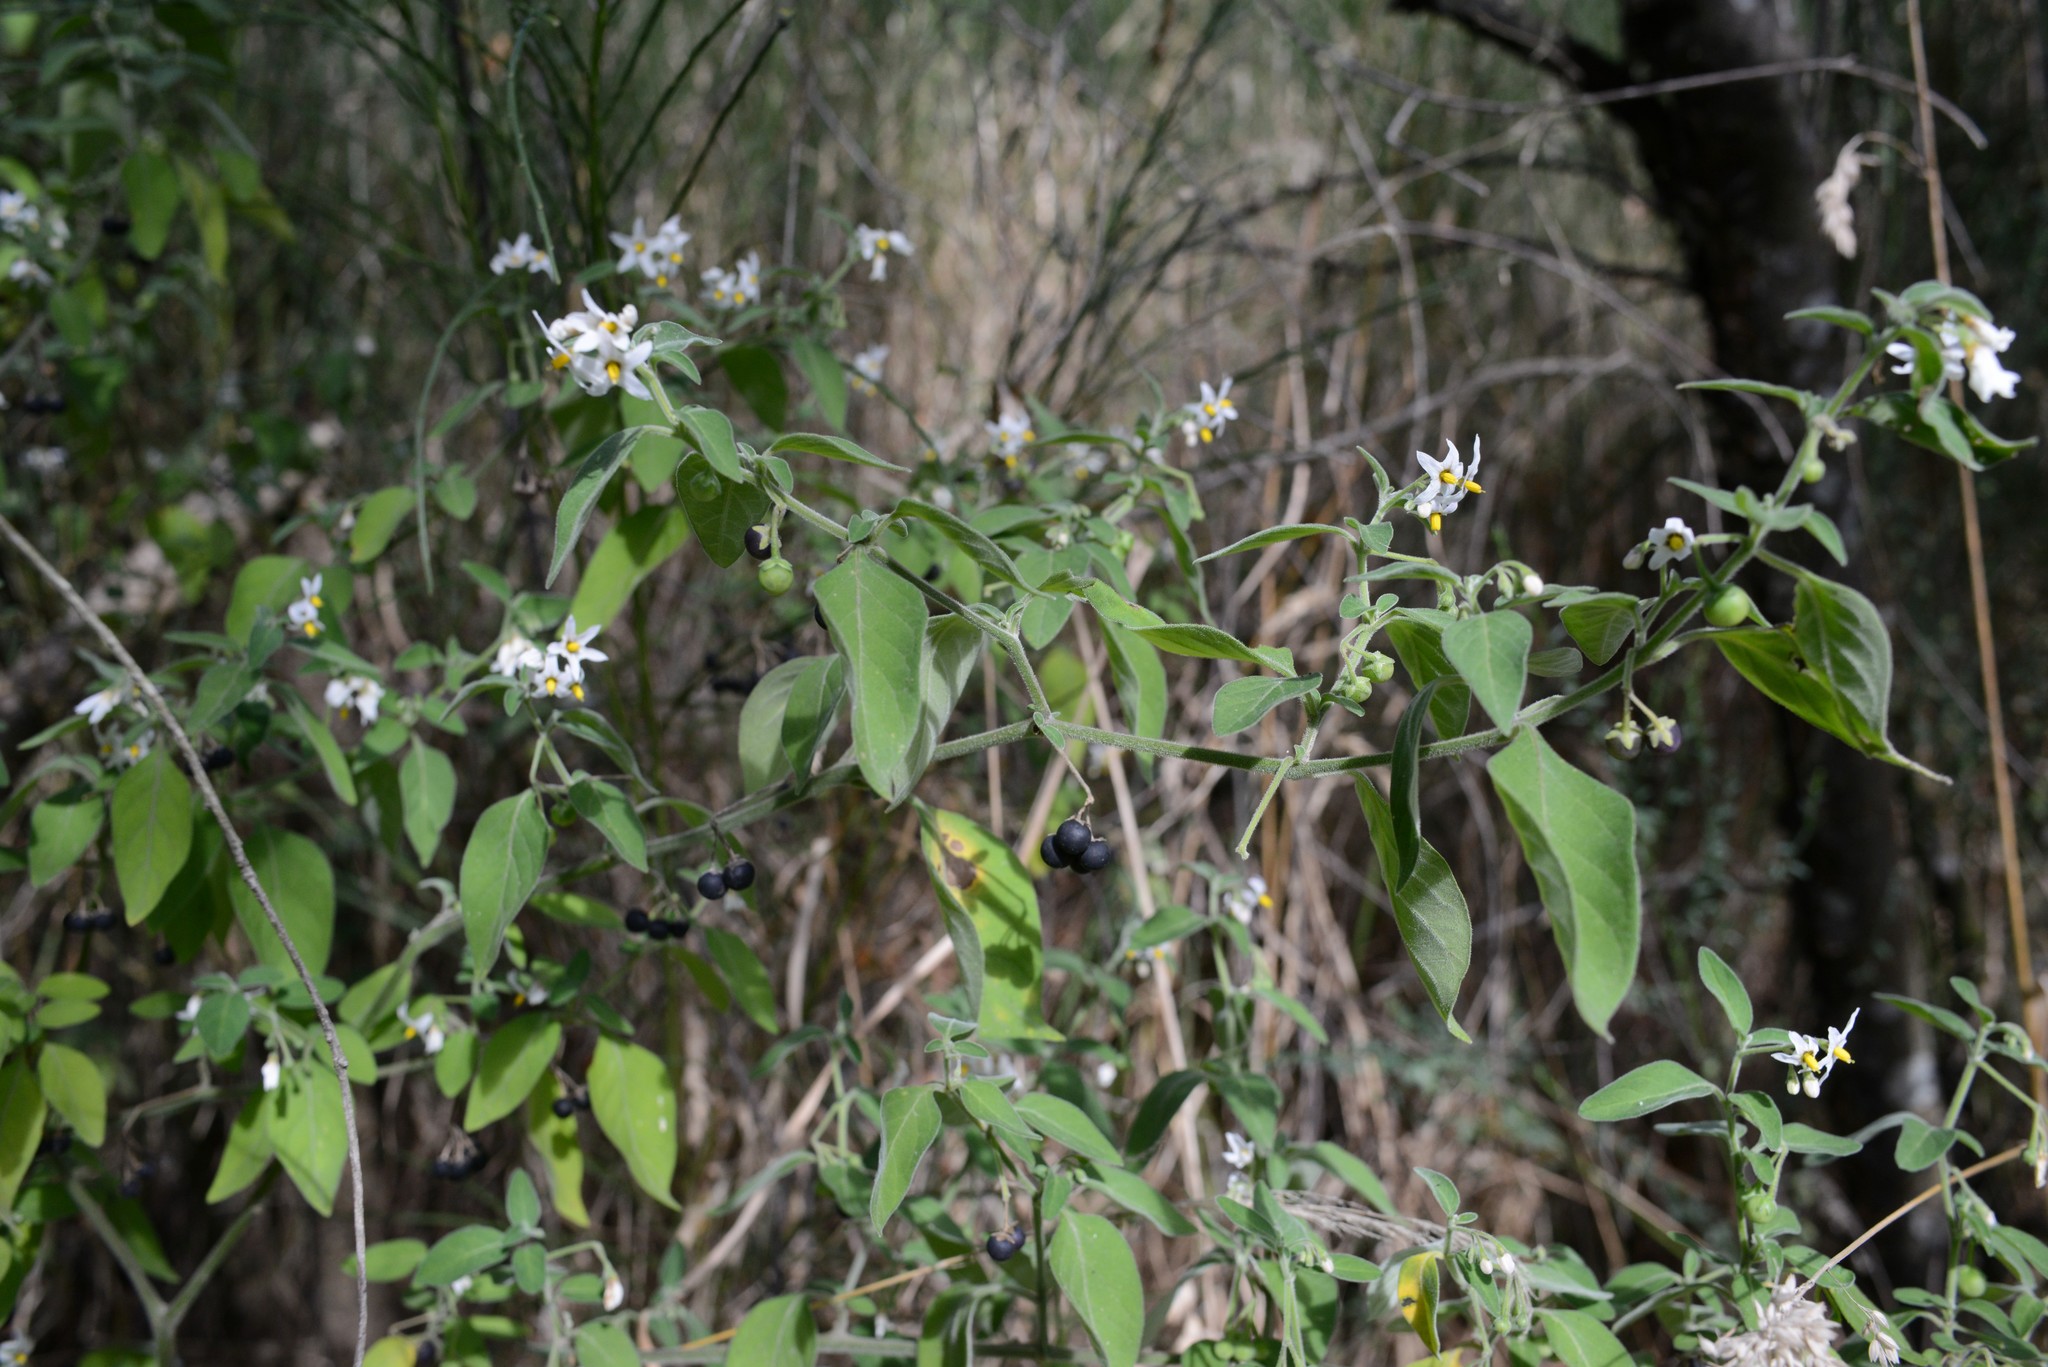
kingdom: Plantae
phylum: Tracheophyta
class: Magnoliopsida
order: Solanales
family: Solanaceae
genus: Solanum
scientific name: Solanum chenopodioides
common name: Tall nightshade
